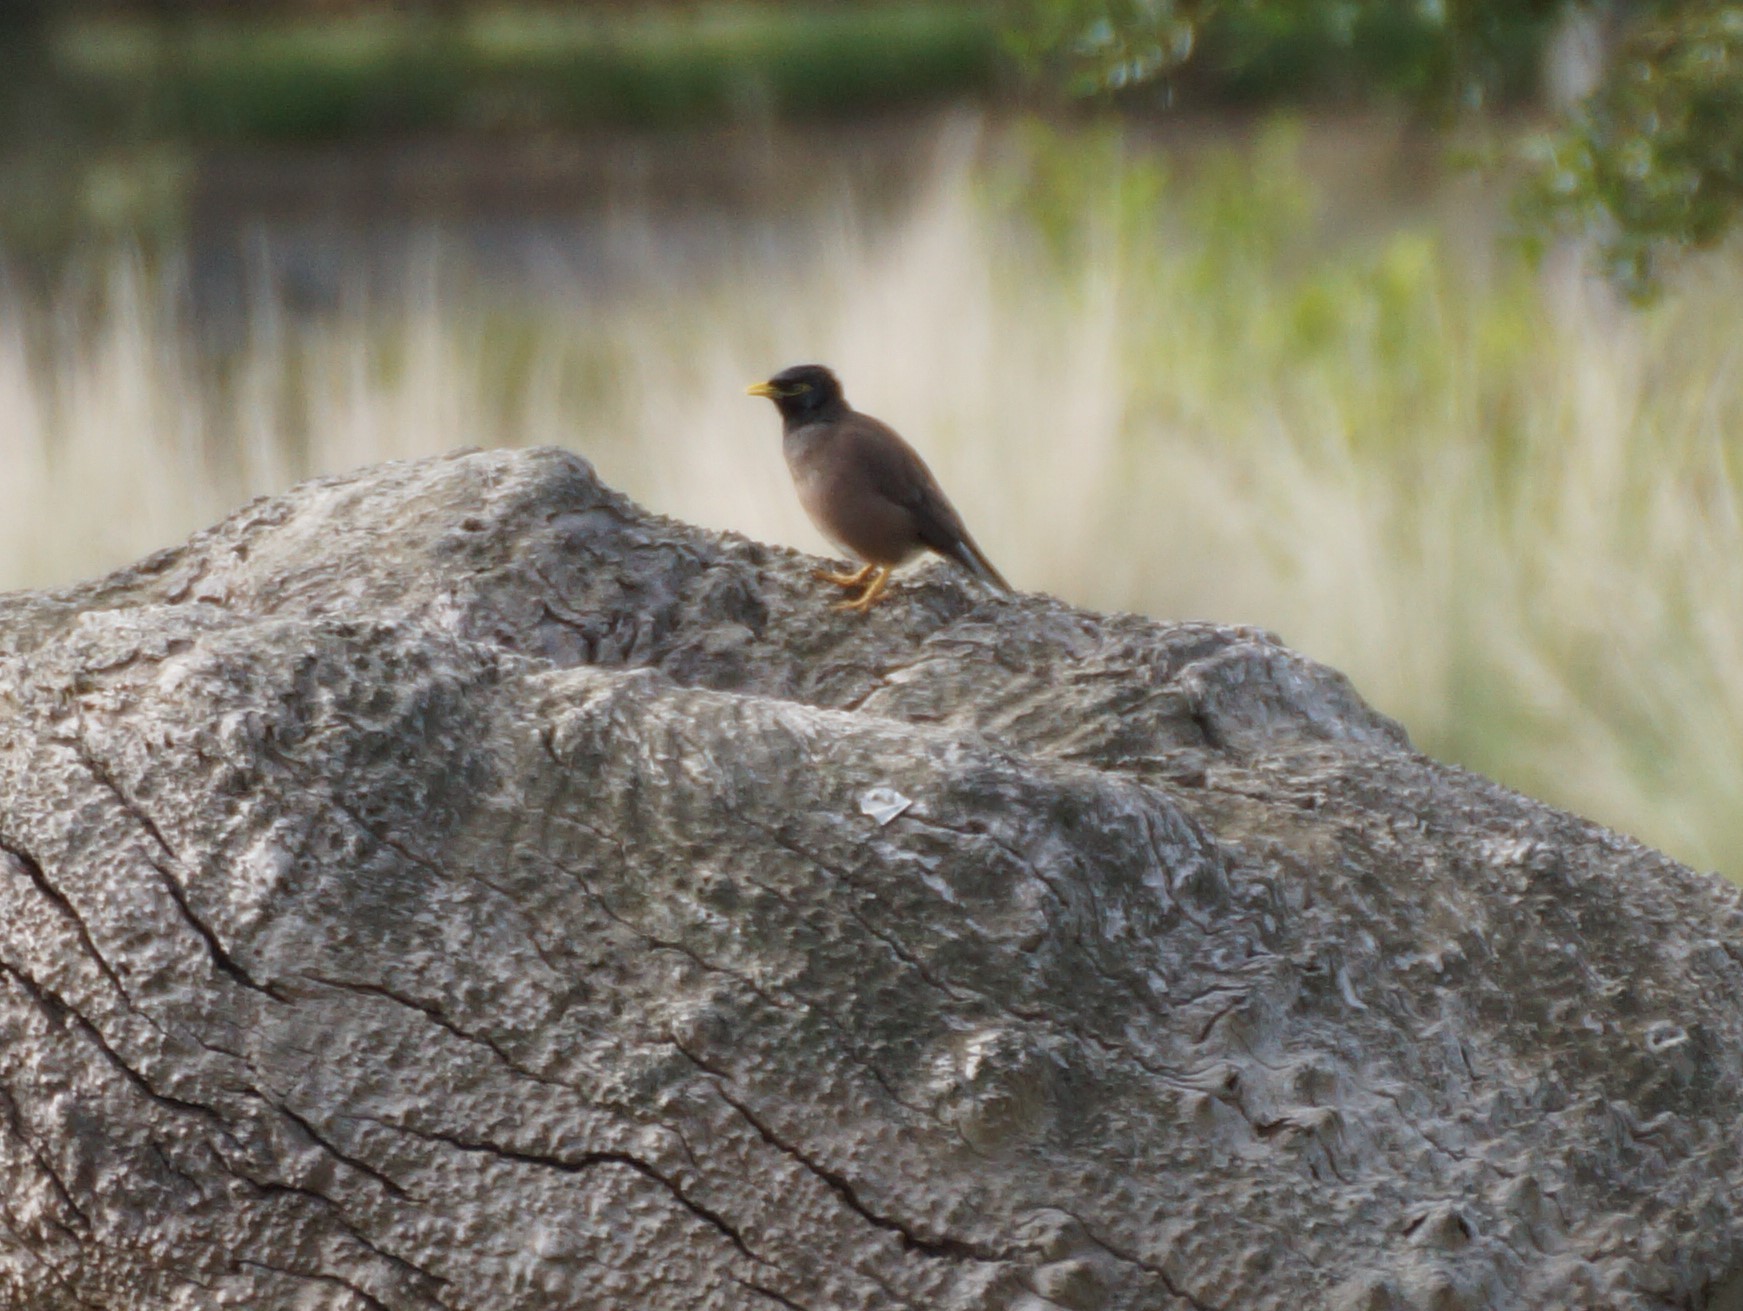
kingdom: Animalia
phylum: Chordata
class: Aves
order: Passeriformes
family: Sturnidae
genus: Acridotheres
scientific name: Acridotheres tristis
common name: Common myna
